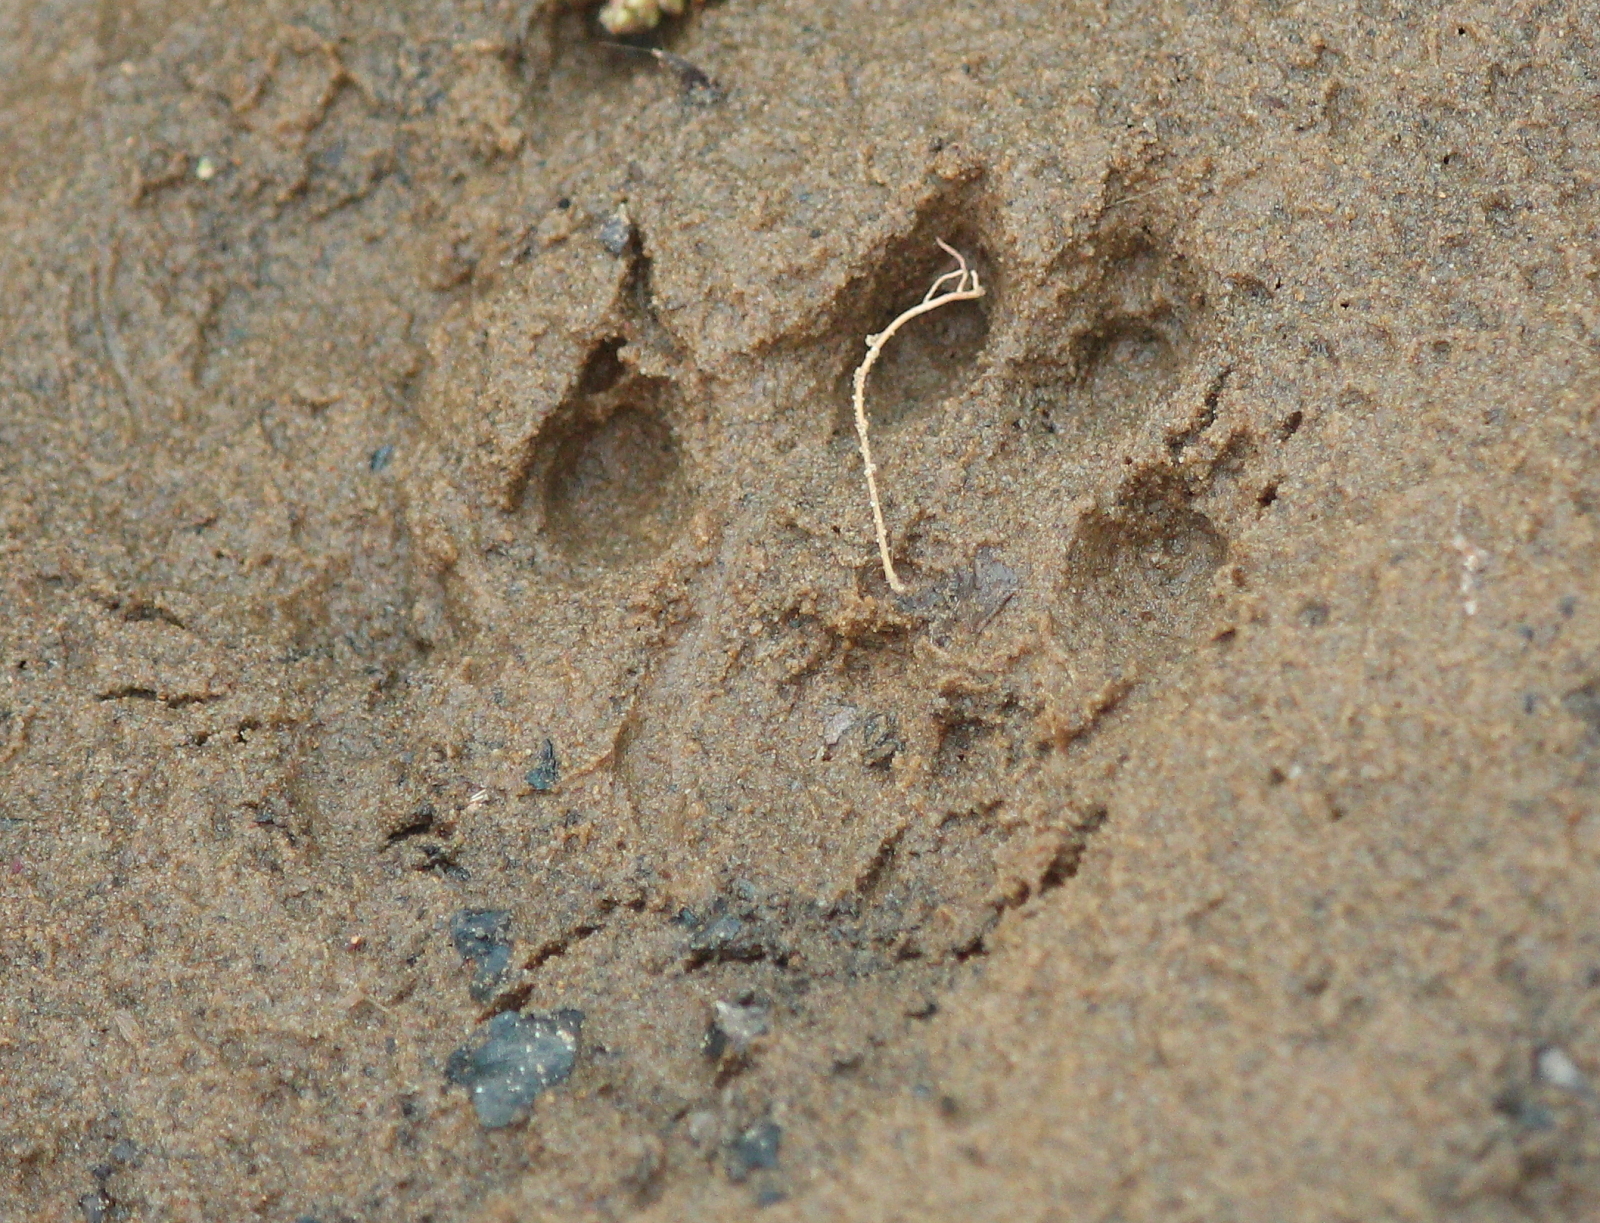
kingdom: Animalia
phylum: Chordata
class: Mammalia
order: Carnivora
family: Mustelidae
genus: Lontra
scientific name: Lontra canadensis
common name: North american river otter
